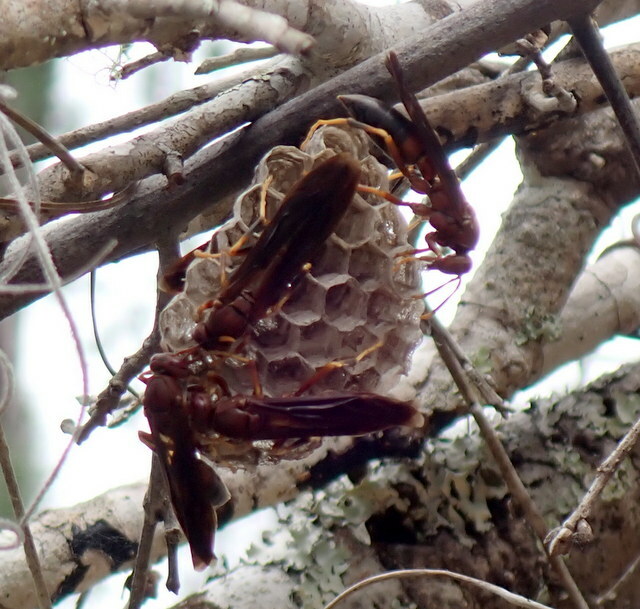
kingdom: Animalia
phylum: Arthropoda
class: Insecta
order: Hymenoptera
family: Eumenidae
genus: Polistes
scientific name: Polistes annularis
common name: Ringed paper wasp
